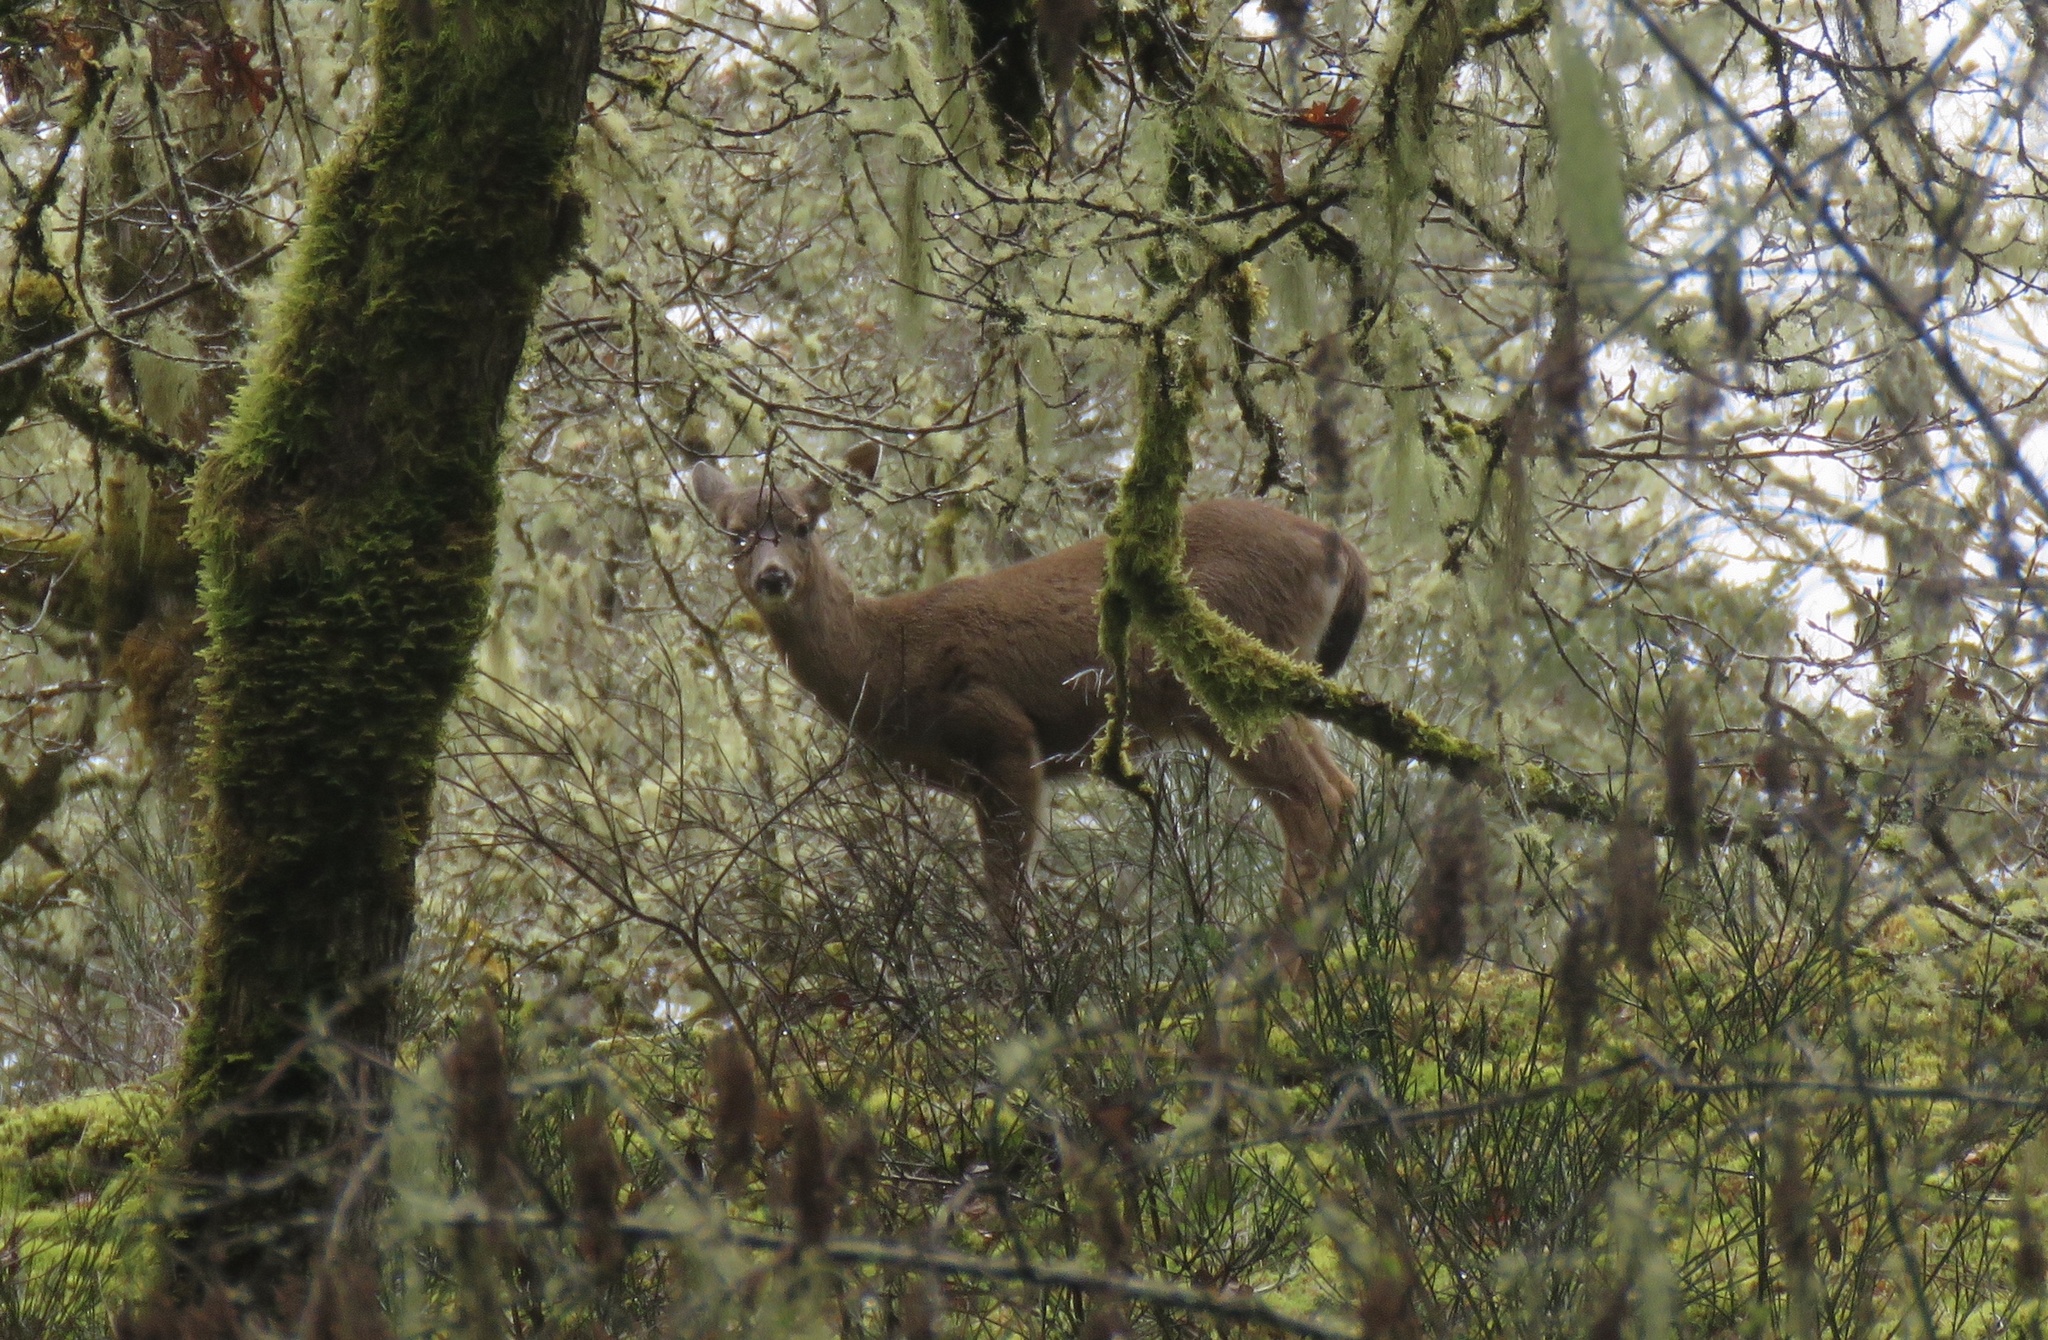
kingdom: Animalia
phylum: Chordata
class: Mammalia
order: Artiodactyla
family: Cervidae
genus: Odocoileus
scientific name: Odocoileus hemionus
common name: Mule deer
